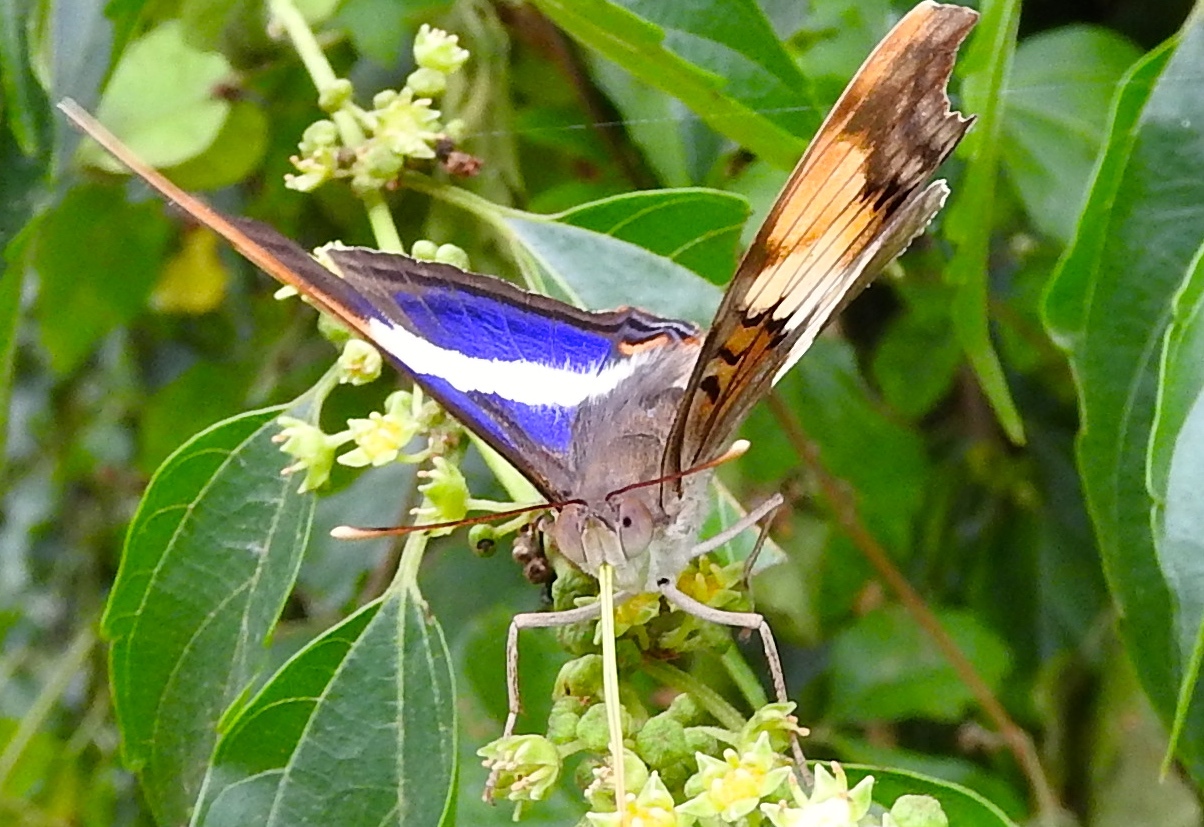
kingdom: Animalia
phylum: Arthropoda
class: Insecta
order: Lepidoptera
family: Nymphalidae
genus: Doxocopa
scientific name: Doxocopa laure
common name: Silver emperor
